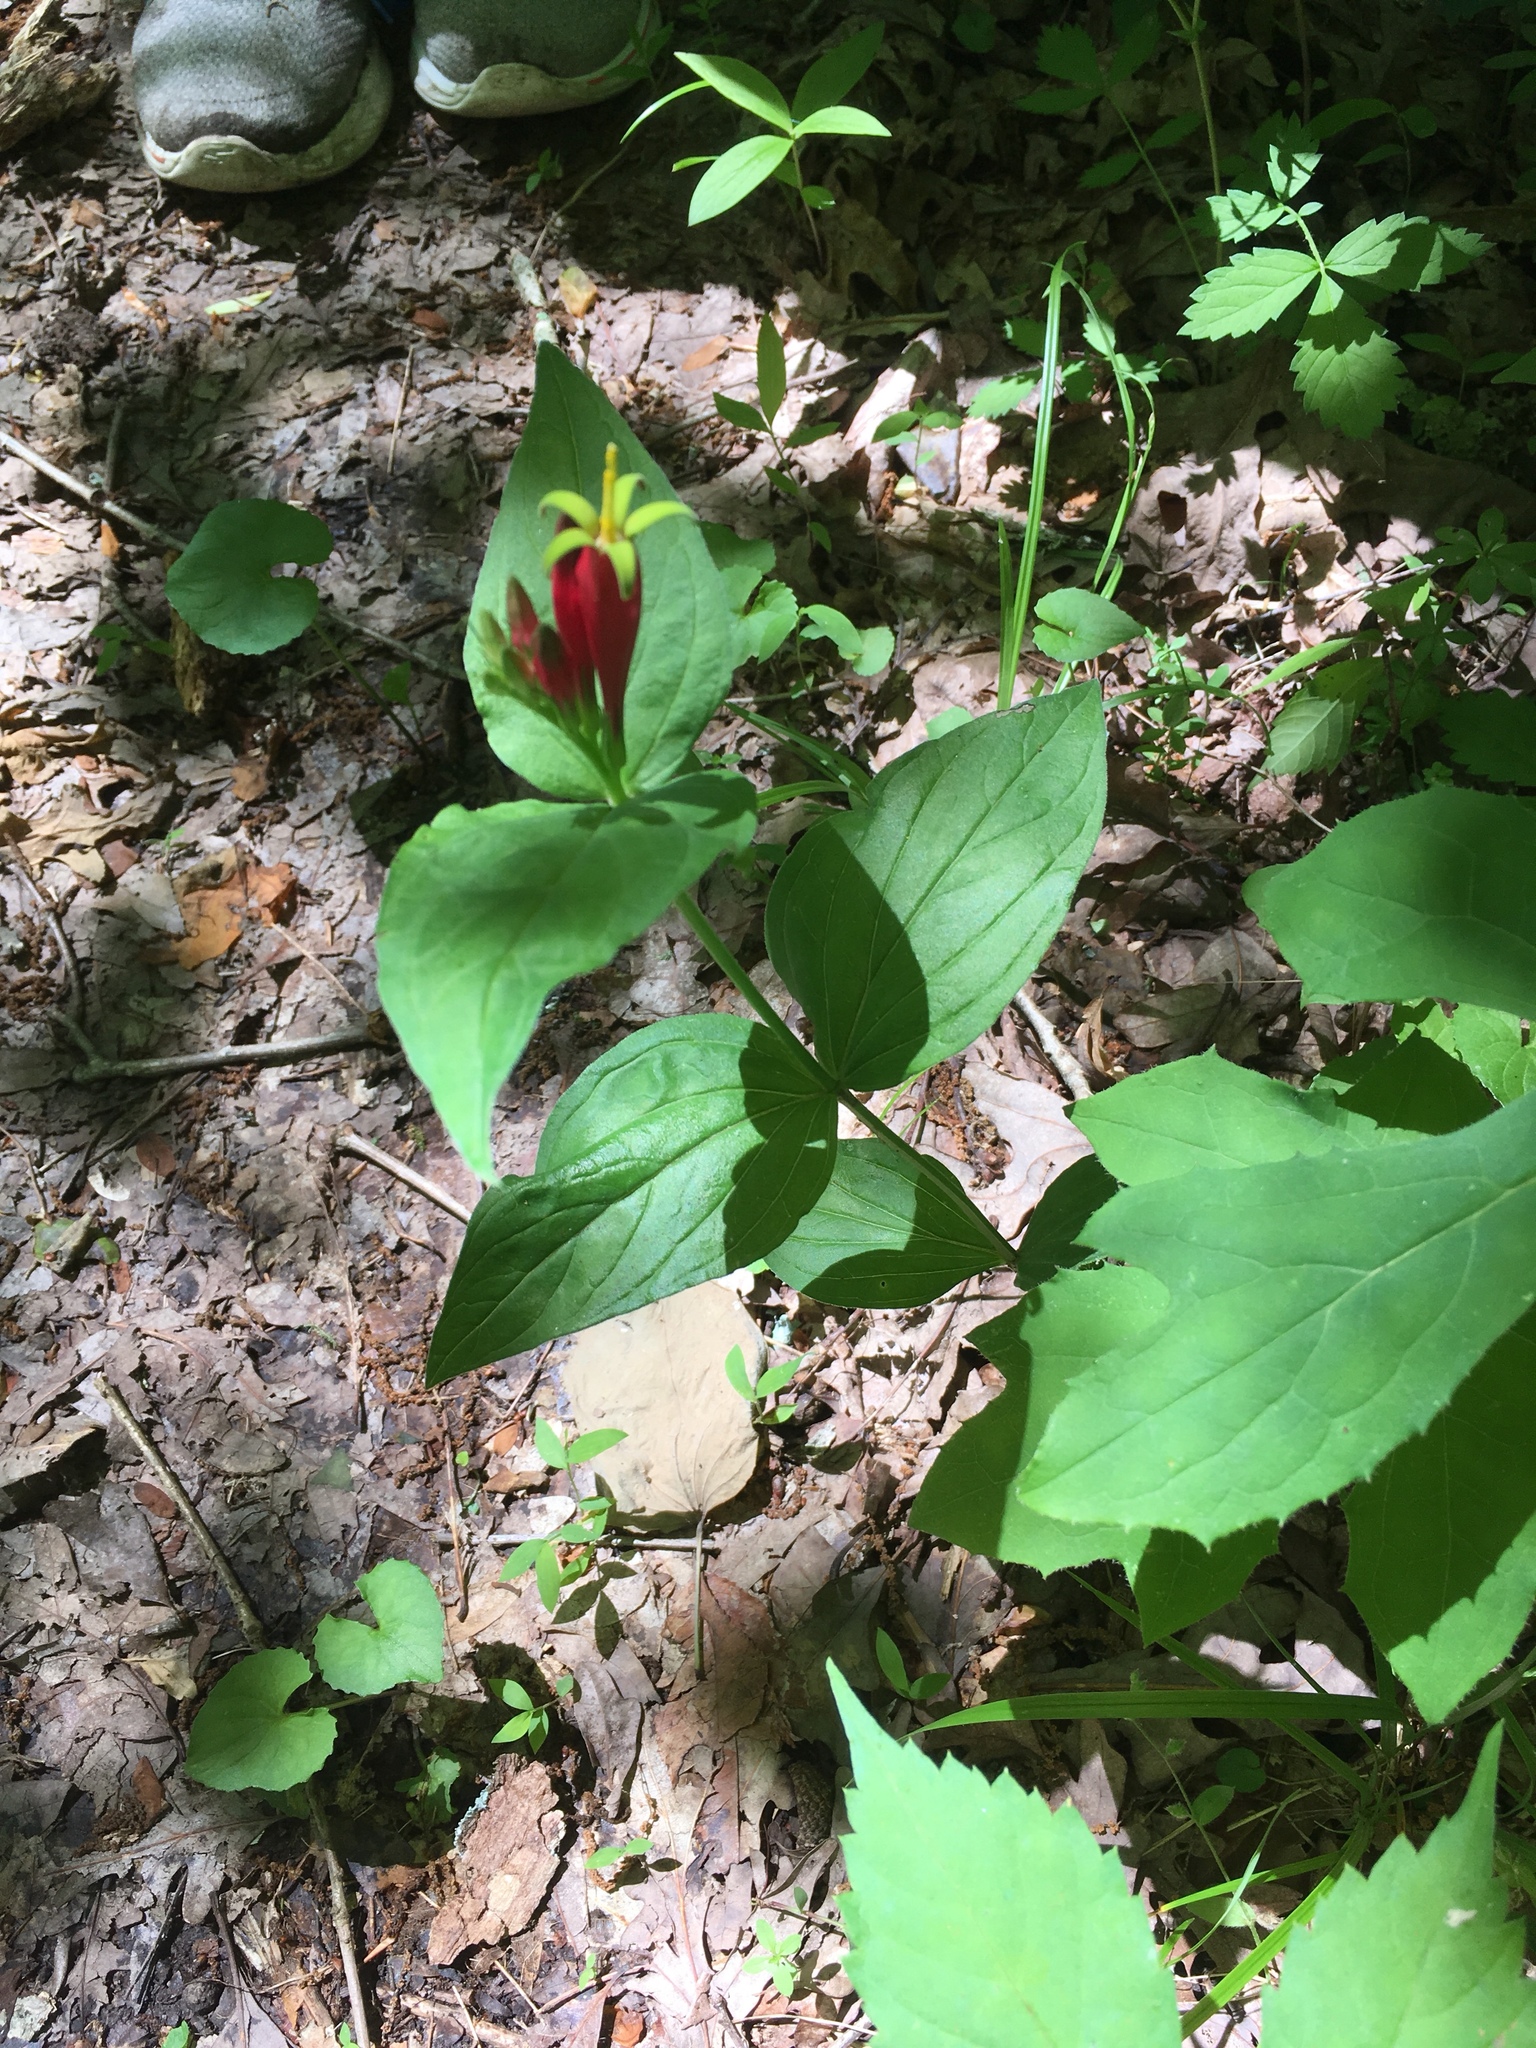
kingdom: Plantae
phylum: Tracheophyta
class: Magnoliopsida
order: Gentianales
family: Loganiaceae
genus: Spigelia
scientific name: Spigelia marilandica
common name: Indian-pink
